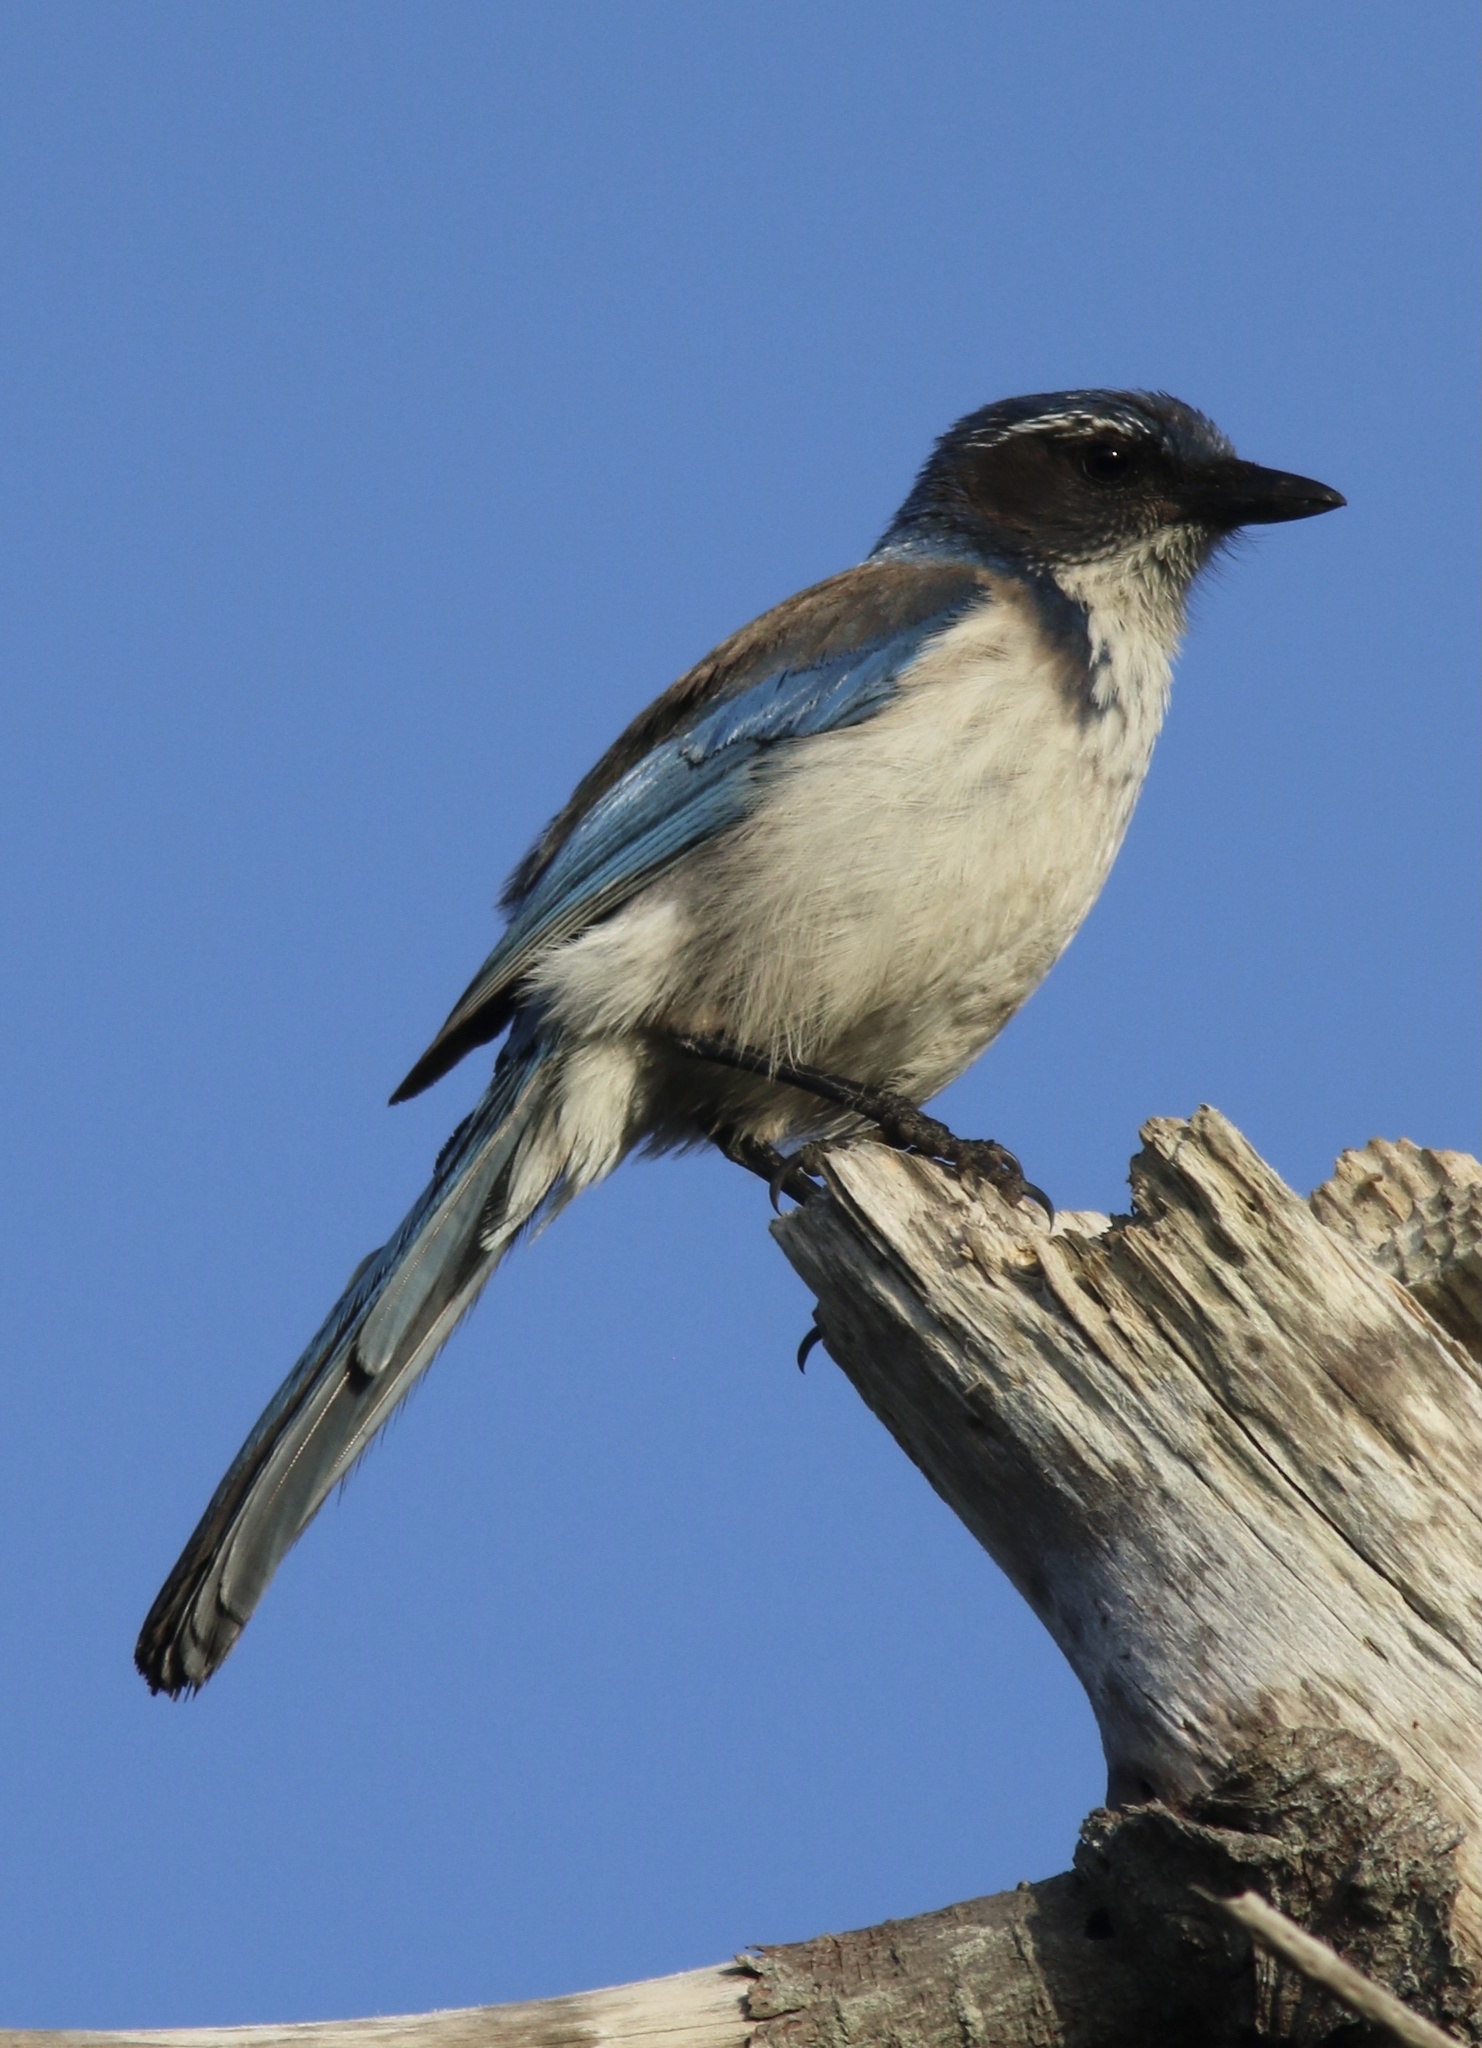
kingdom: Animalia
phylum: Chordata
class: Aves
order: Passeriformes
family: Corvidae
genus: Aphelocoma
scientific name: Aphelocoma californica
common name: California scrub-jay
